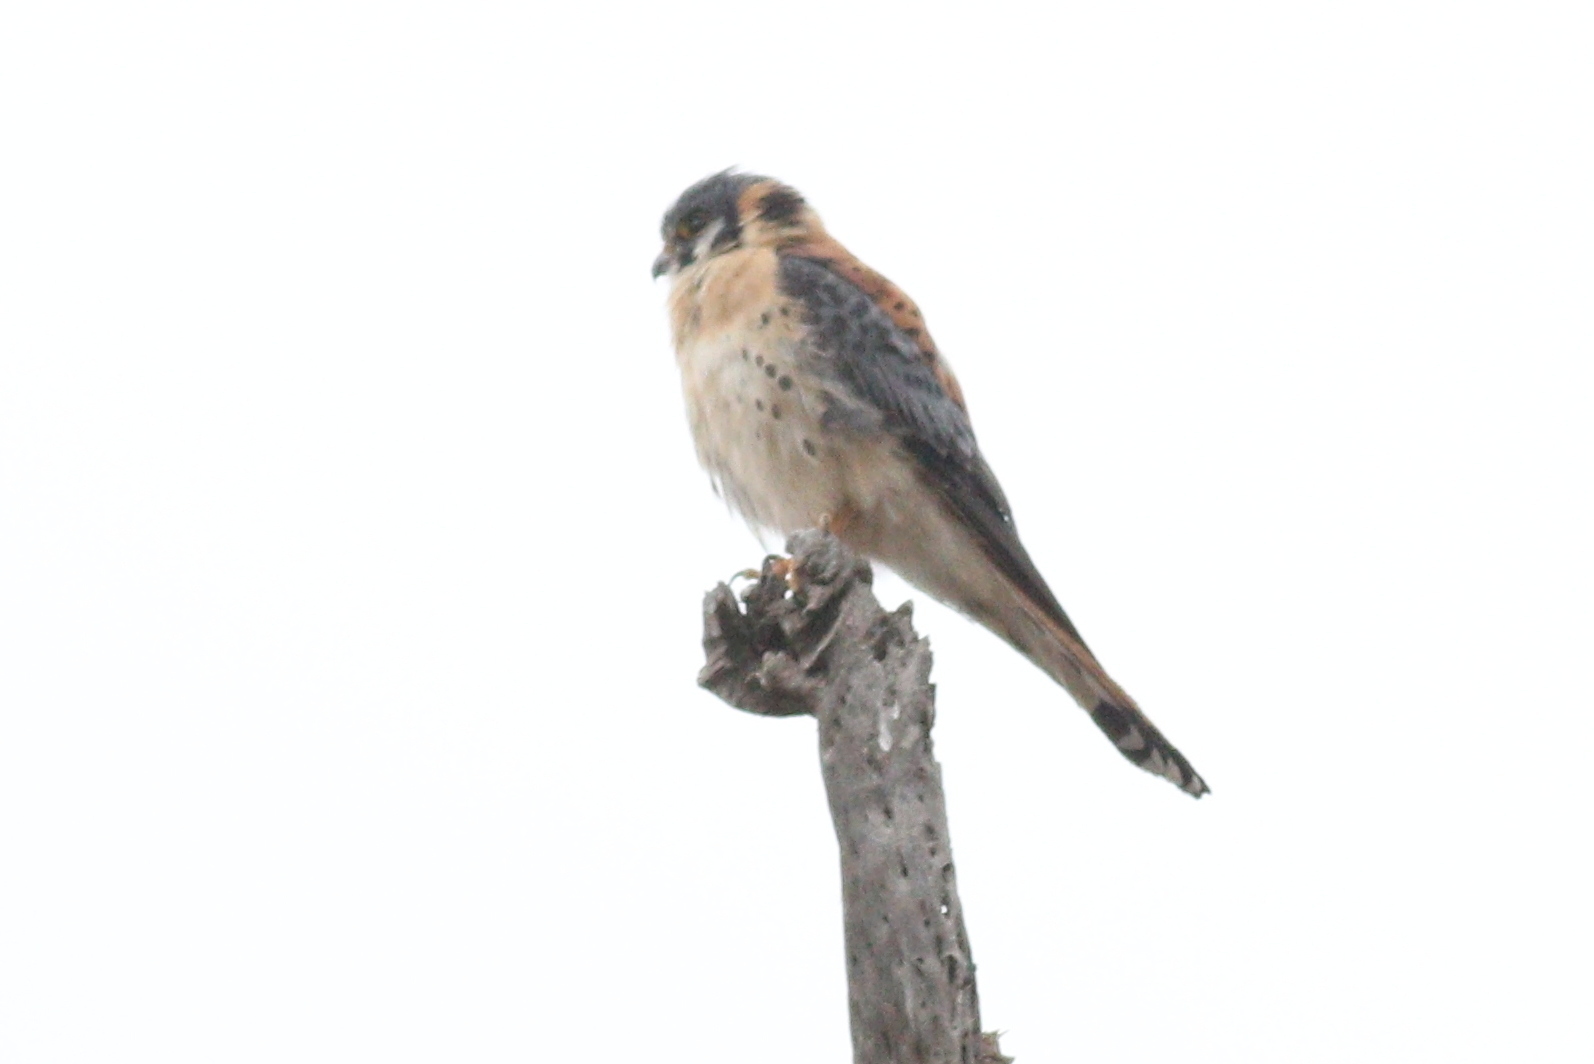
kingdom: Animalia
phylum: Chordata
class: Aves
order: Falconiformes
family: Falconidae
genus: Falco
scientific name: Falco sparverius
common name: American kestrel
